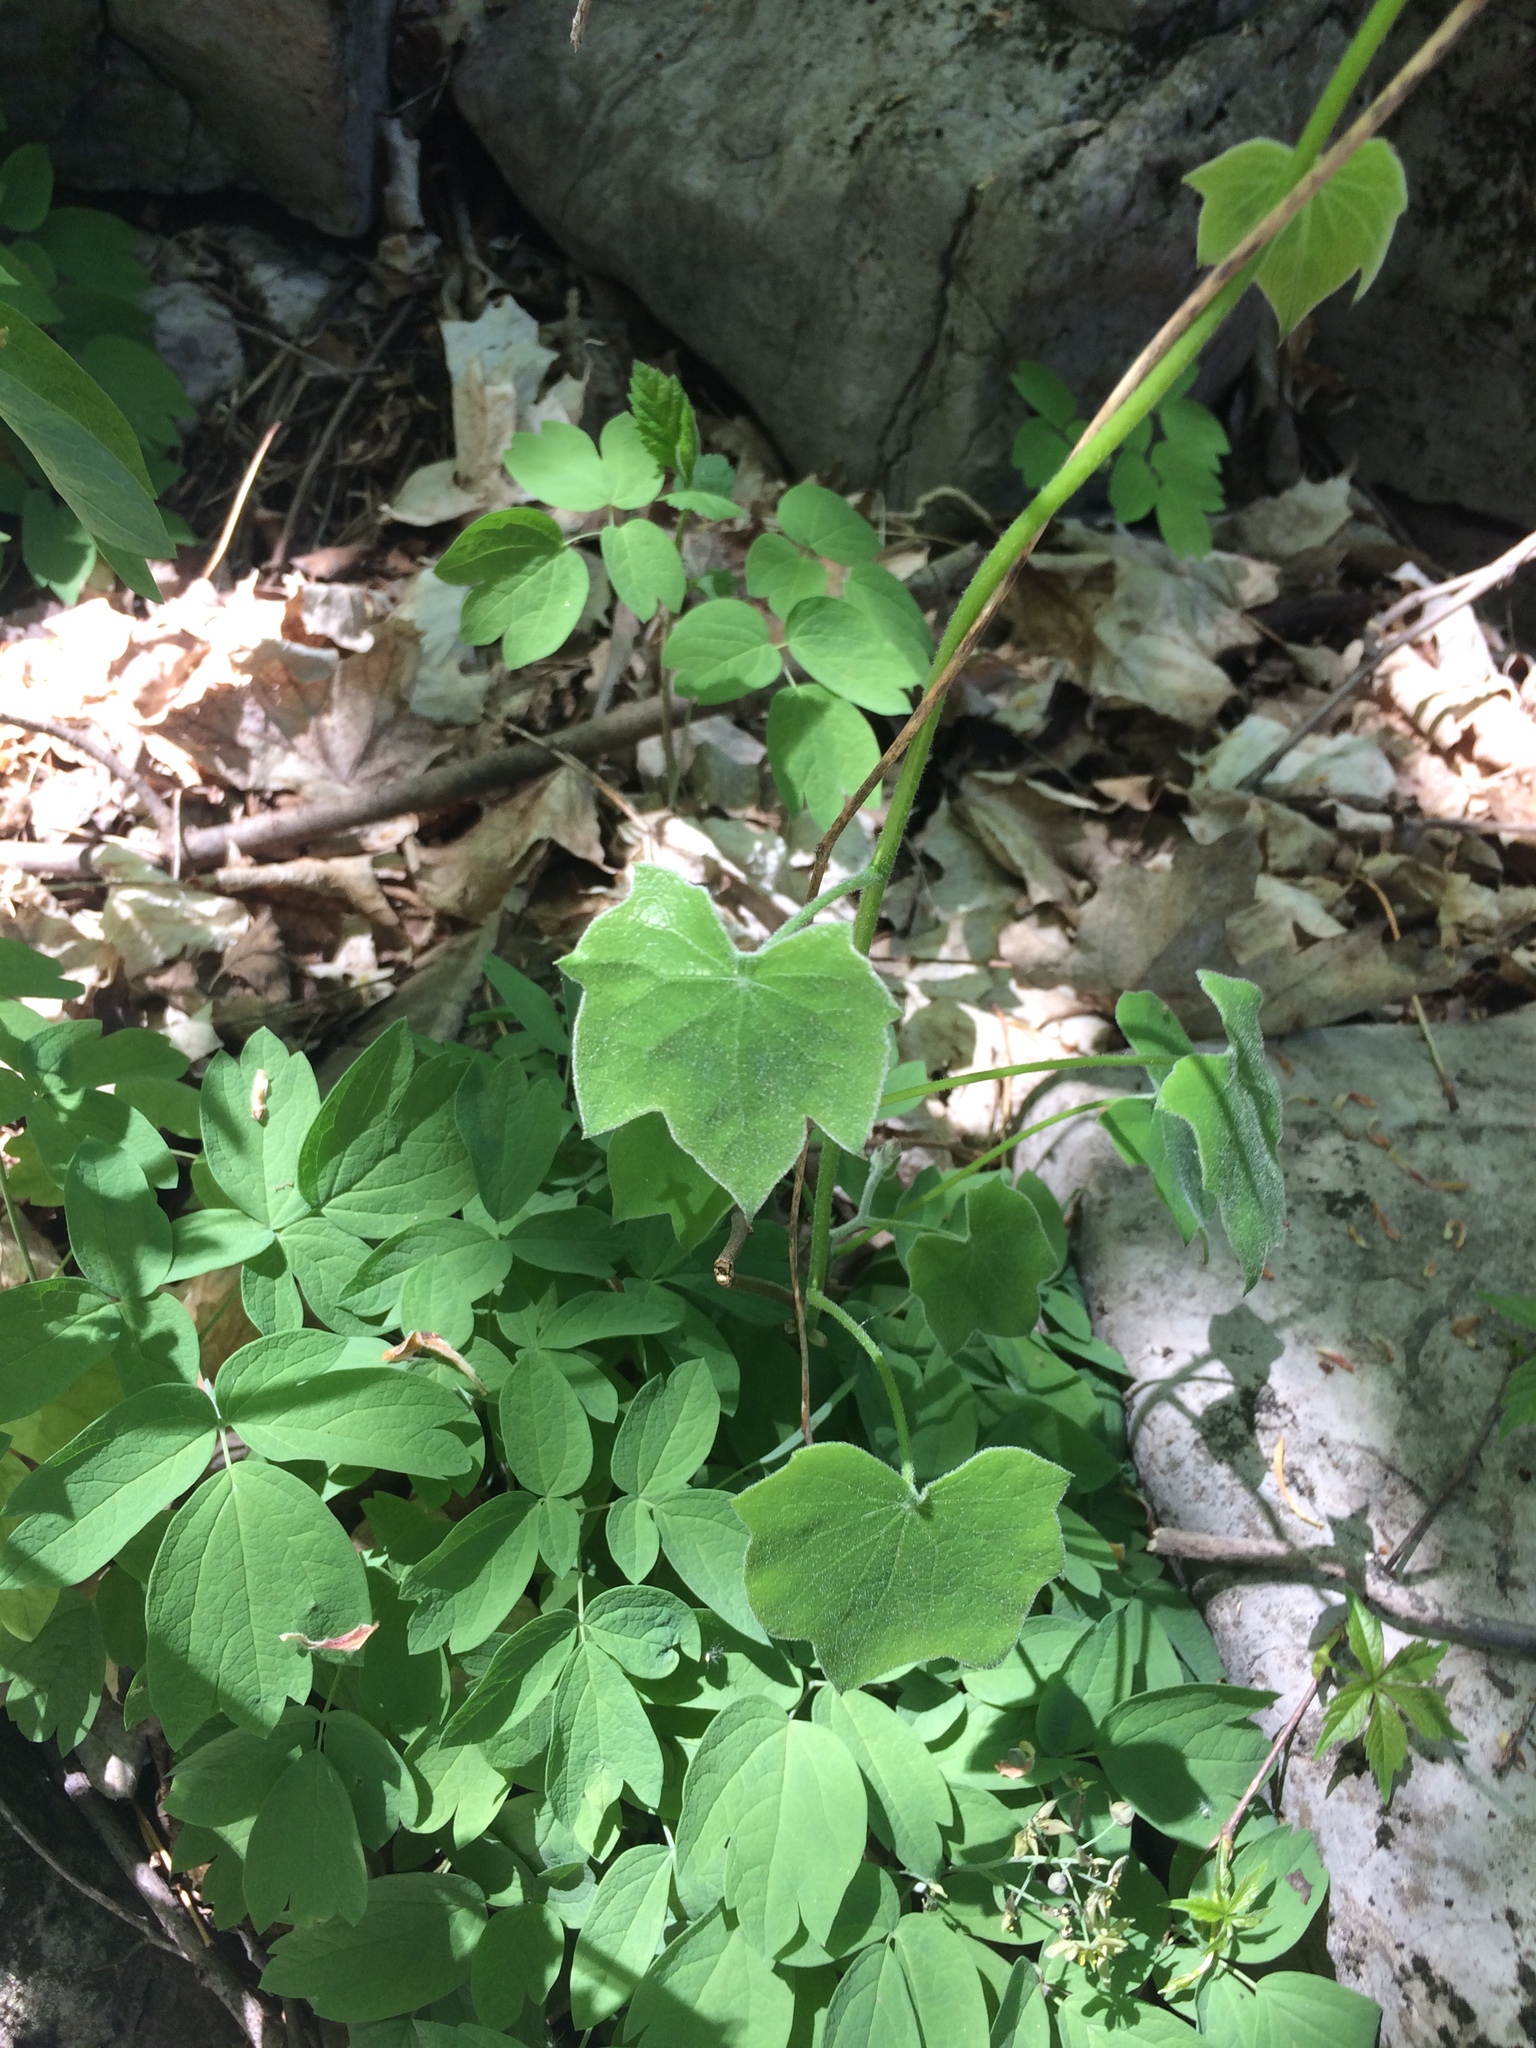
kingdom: Plantae
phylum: Tracheophyta
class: Magnoliopsida
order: Ranunculales
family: Menispermaceae
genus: Menispermum
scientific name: Menispermum canadense
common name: Moonseed
